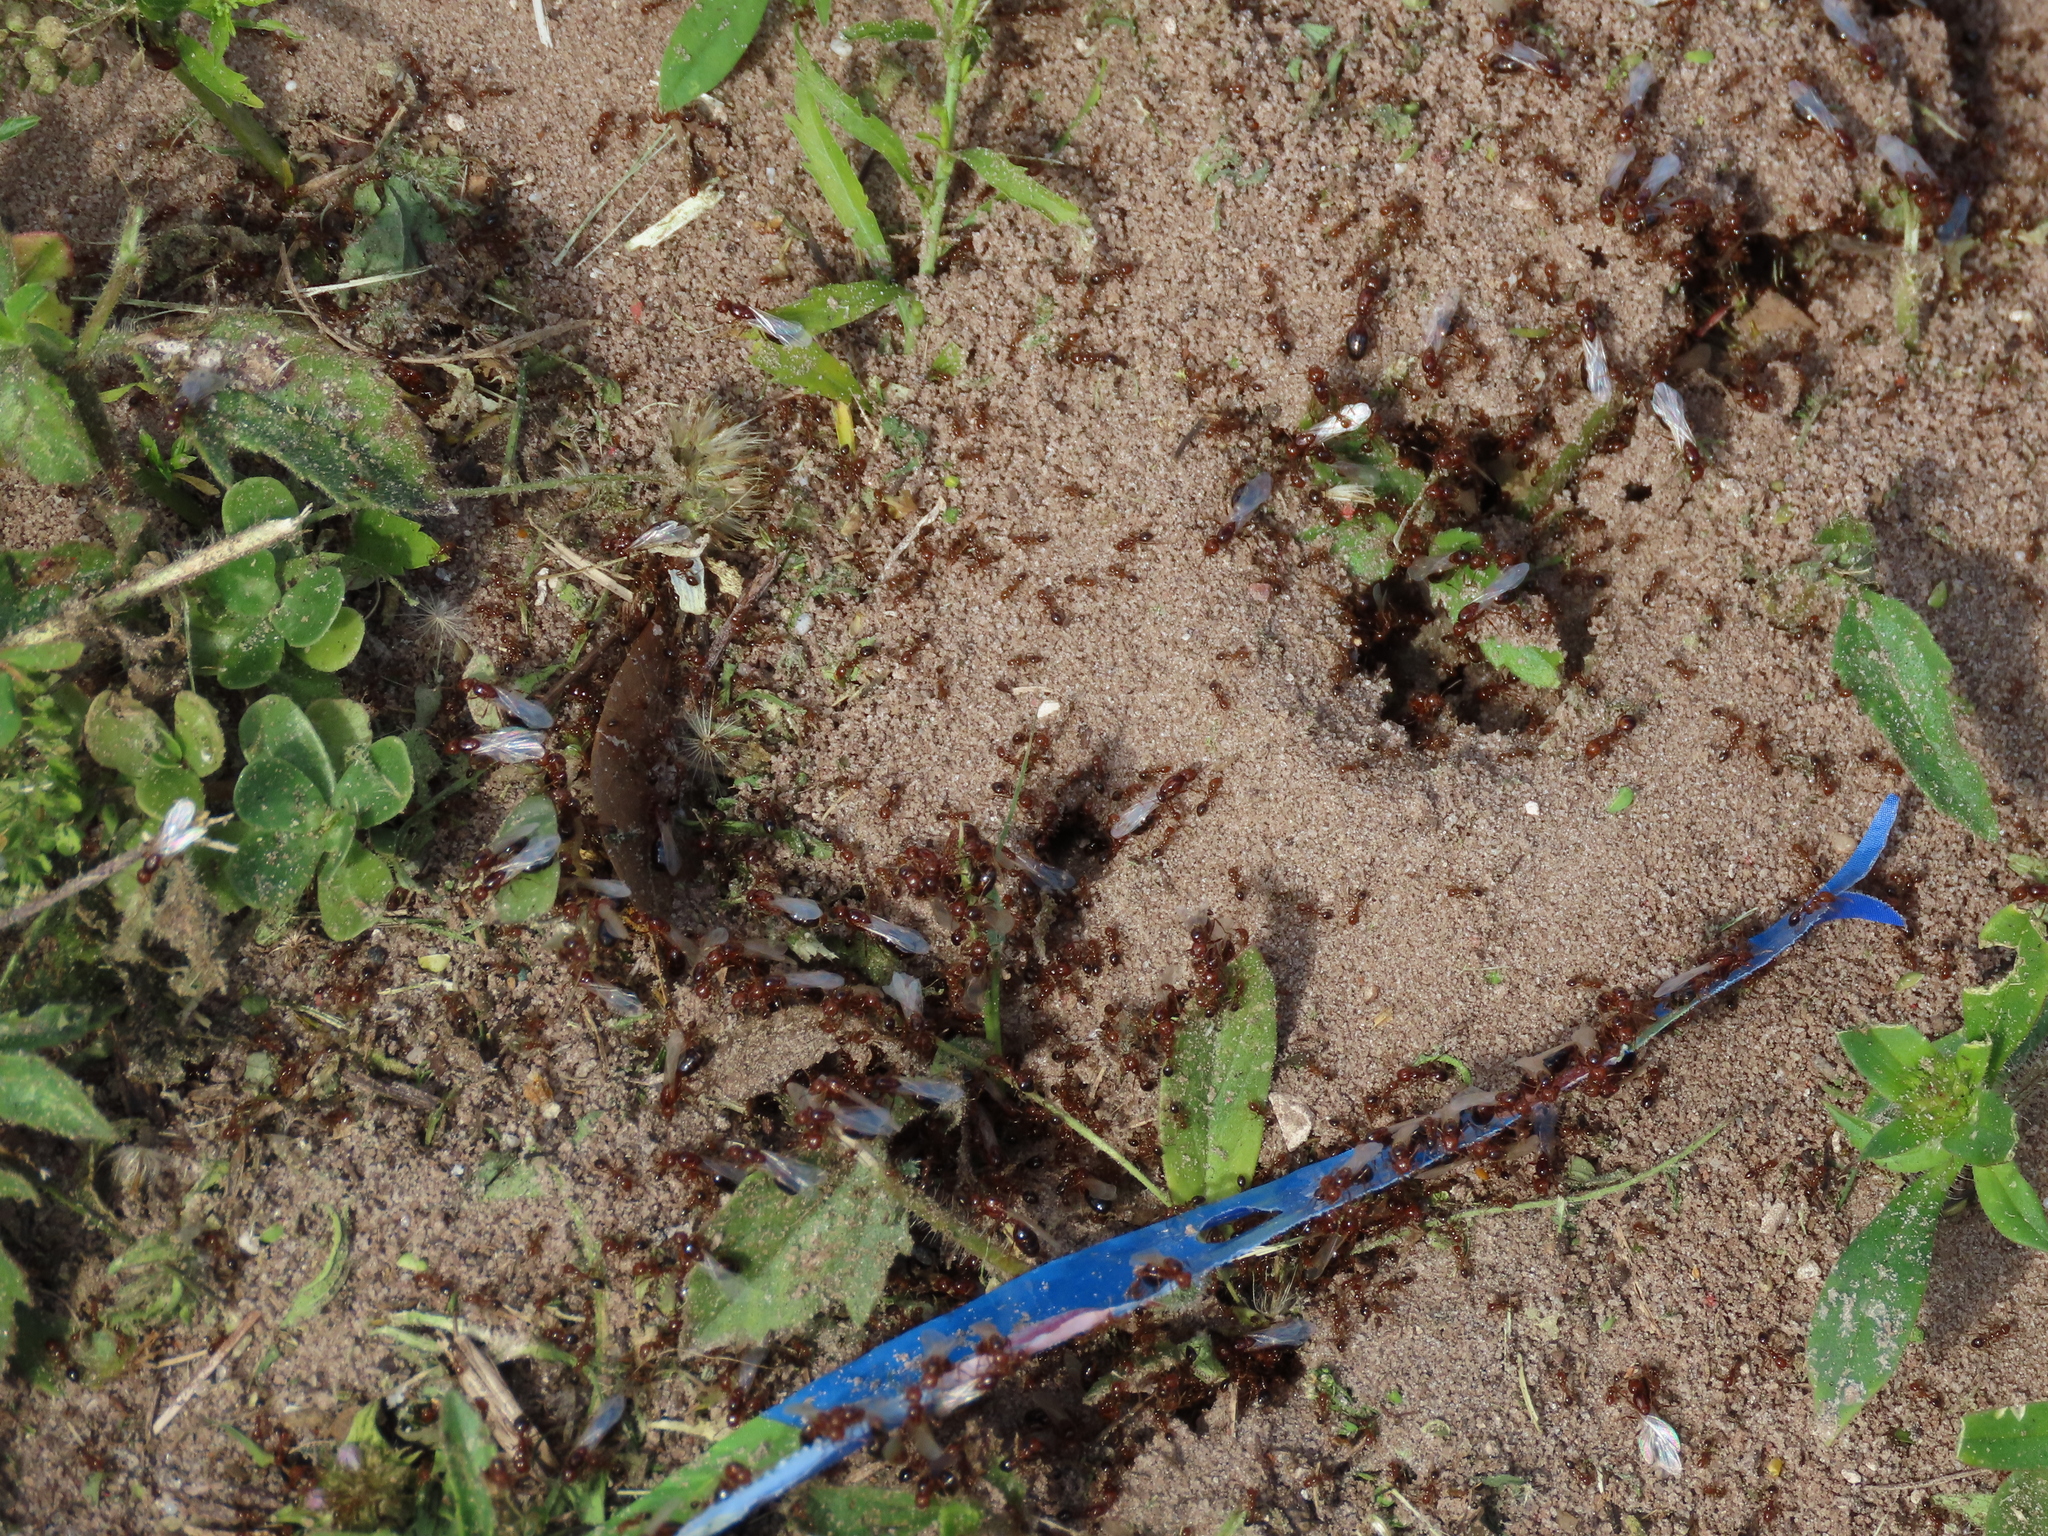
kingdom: Animalia
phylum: Arthropoda
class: Insecta
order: Hymenoptera
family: Formicidae
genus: Solenopsis
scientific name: Solenopsis invicta
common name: Red imported fire ant
